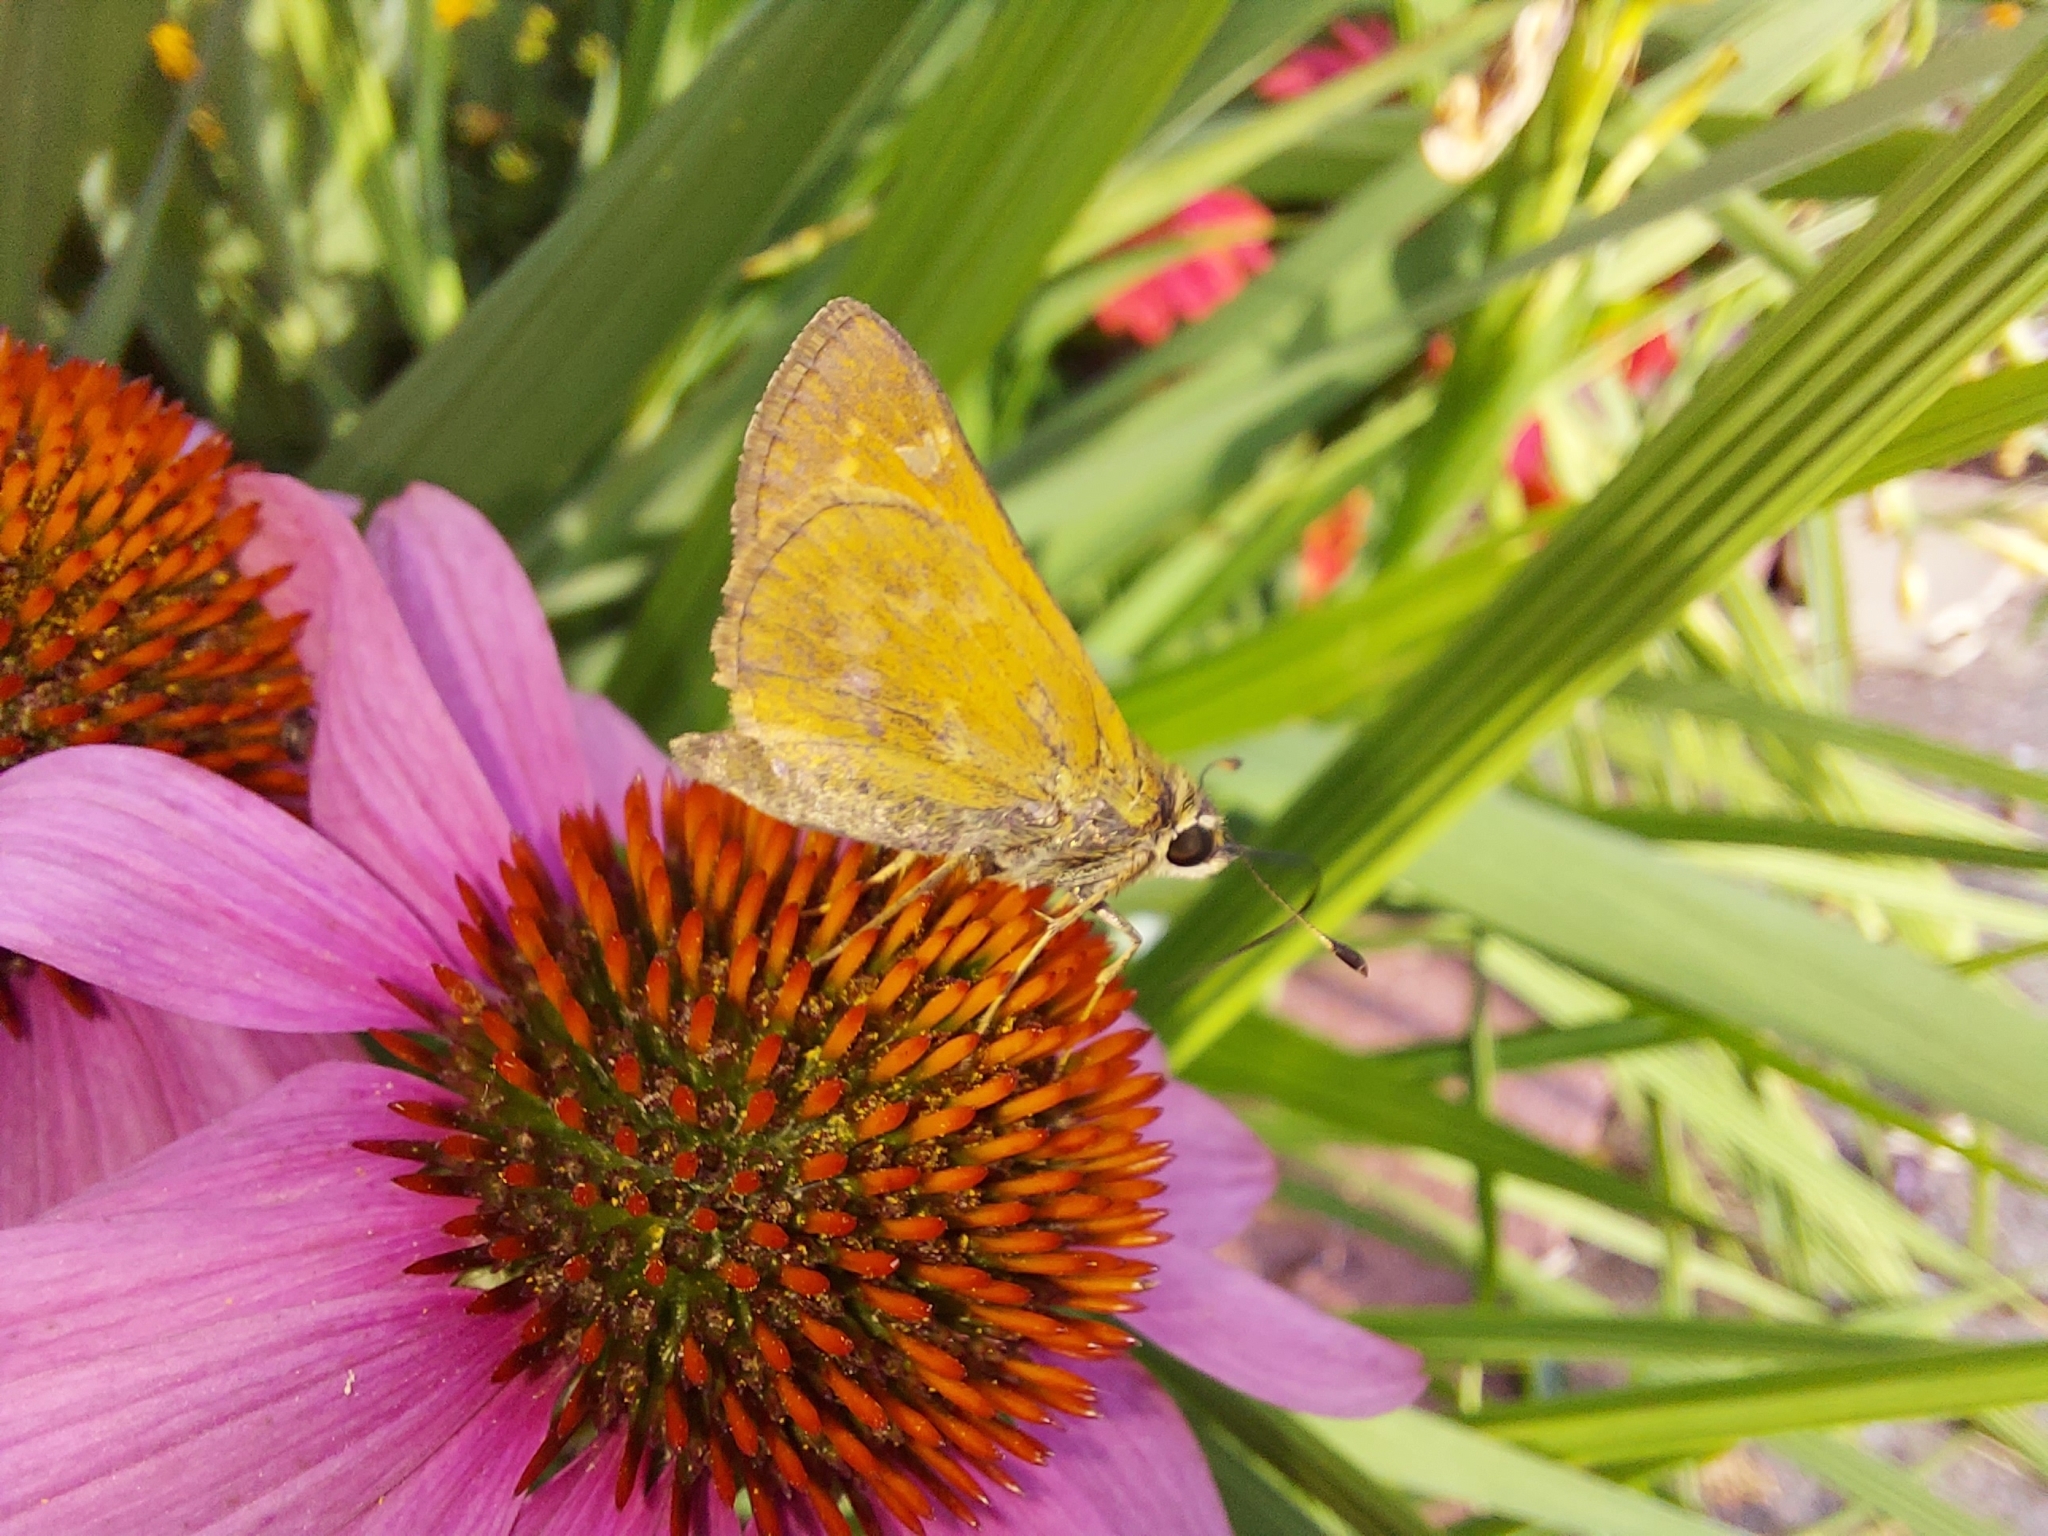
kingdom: Animalia
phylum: Arthropoda
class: Insecta
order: Lepidoptera
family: Hesperiidae
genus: Atalopedes
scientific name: Atalopedes
